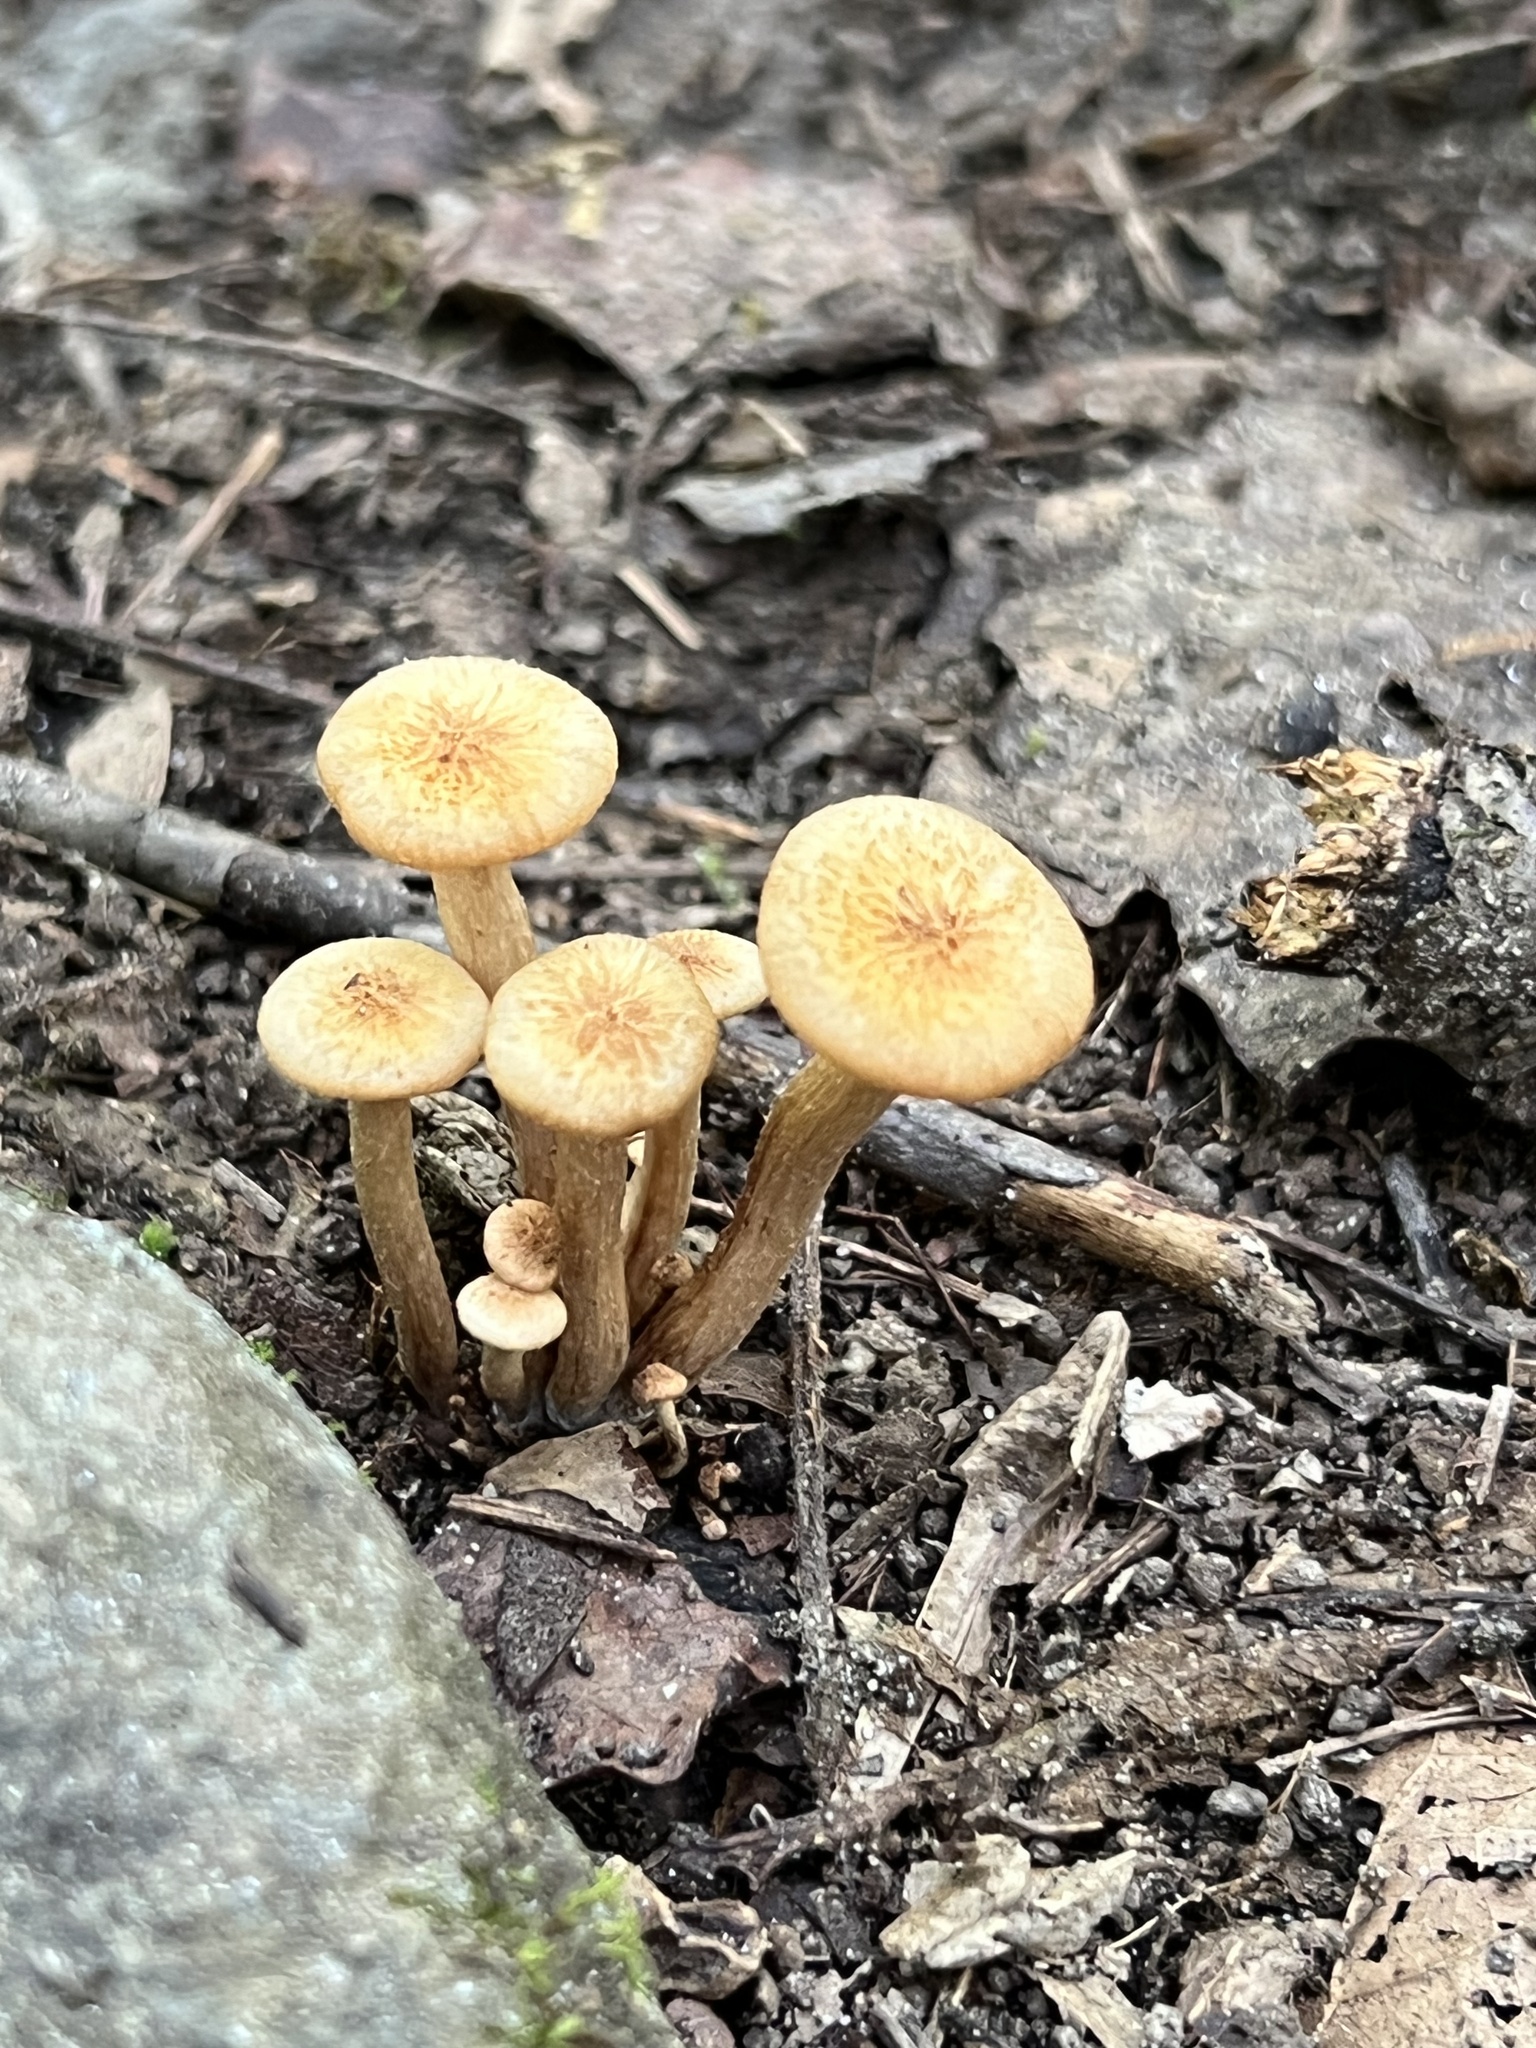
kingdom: Fungi
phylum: Basidiomycota
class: Agaricomycetes
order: Agaricales
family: Physalacriaceae
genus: Desarmillaria
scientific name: Desarmillaria caespitosa
